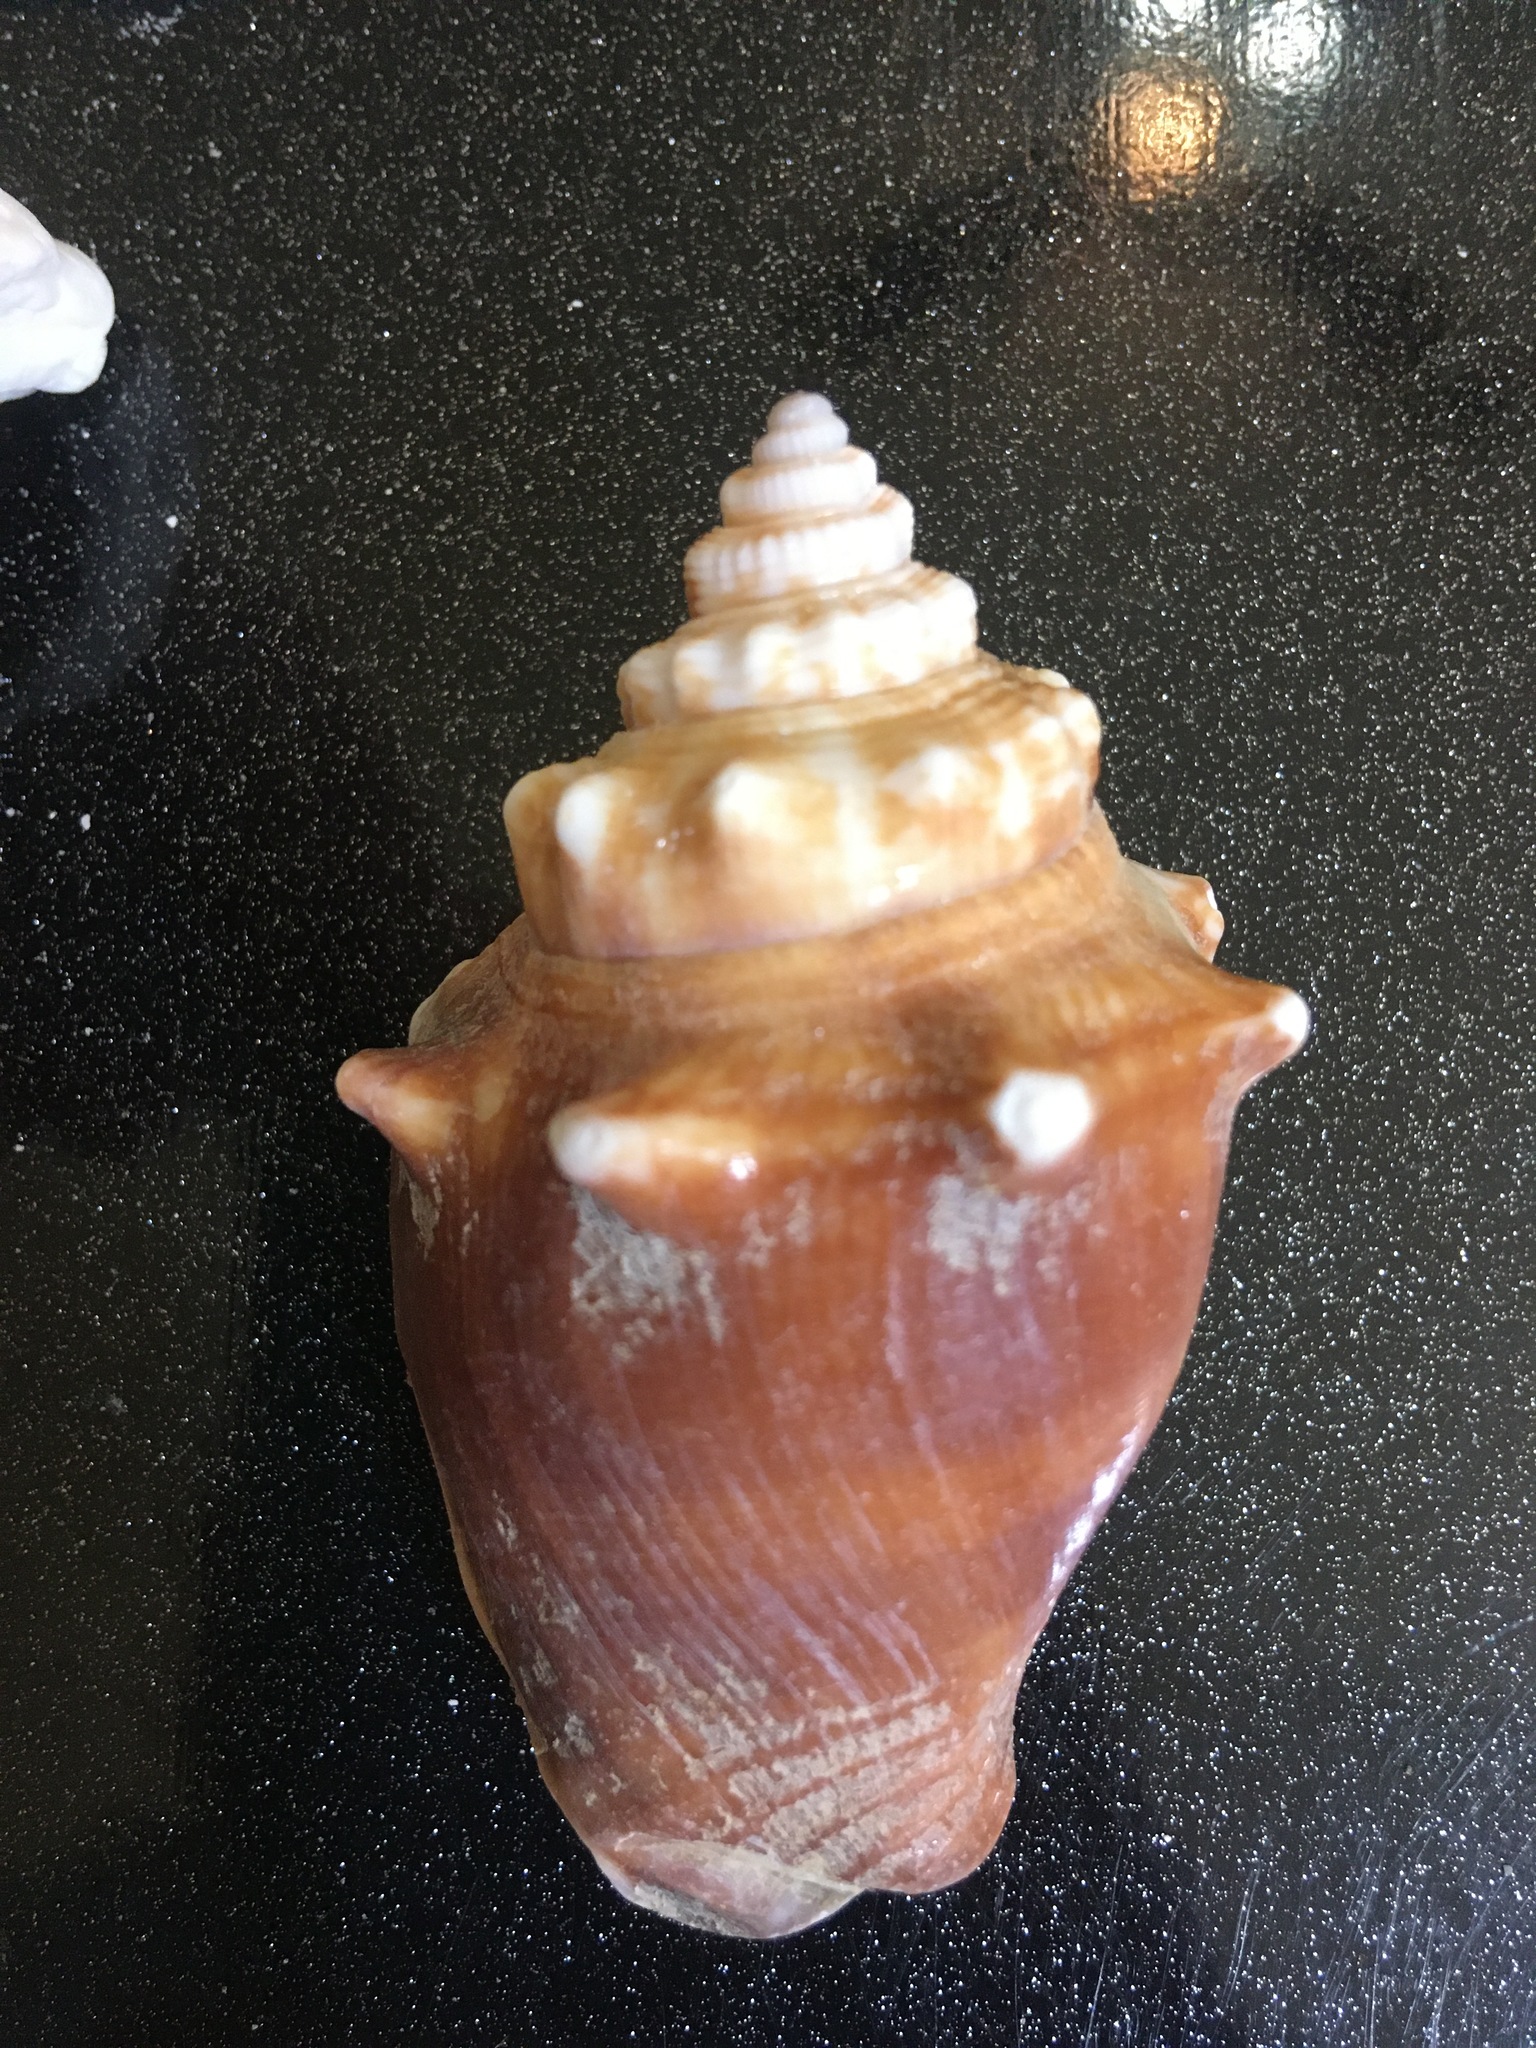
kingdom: Animalia
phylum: Mollusca
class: Gastropoda
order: Littorinimorpha
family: Strombidae
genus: Strombus
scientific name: Strombus alatus
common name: Florida fighting conch
